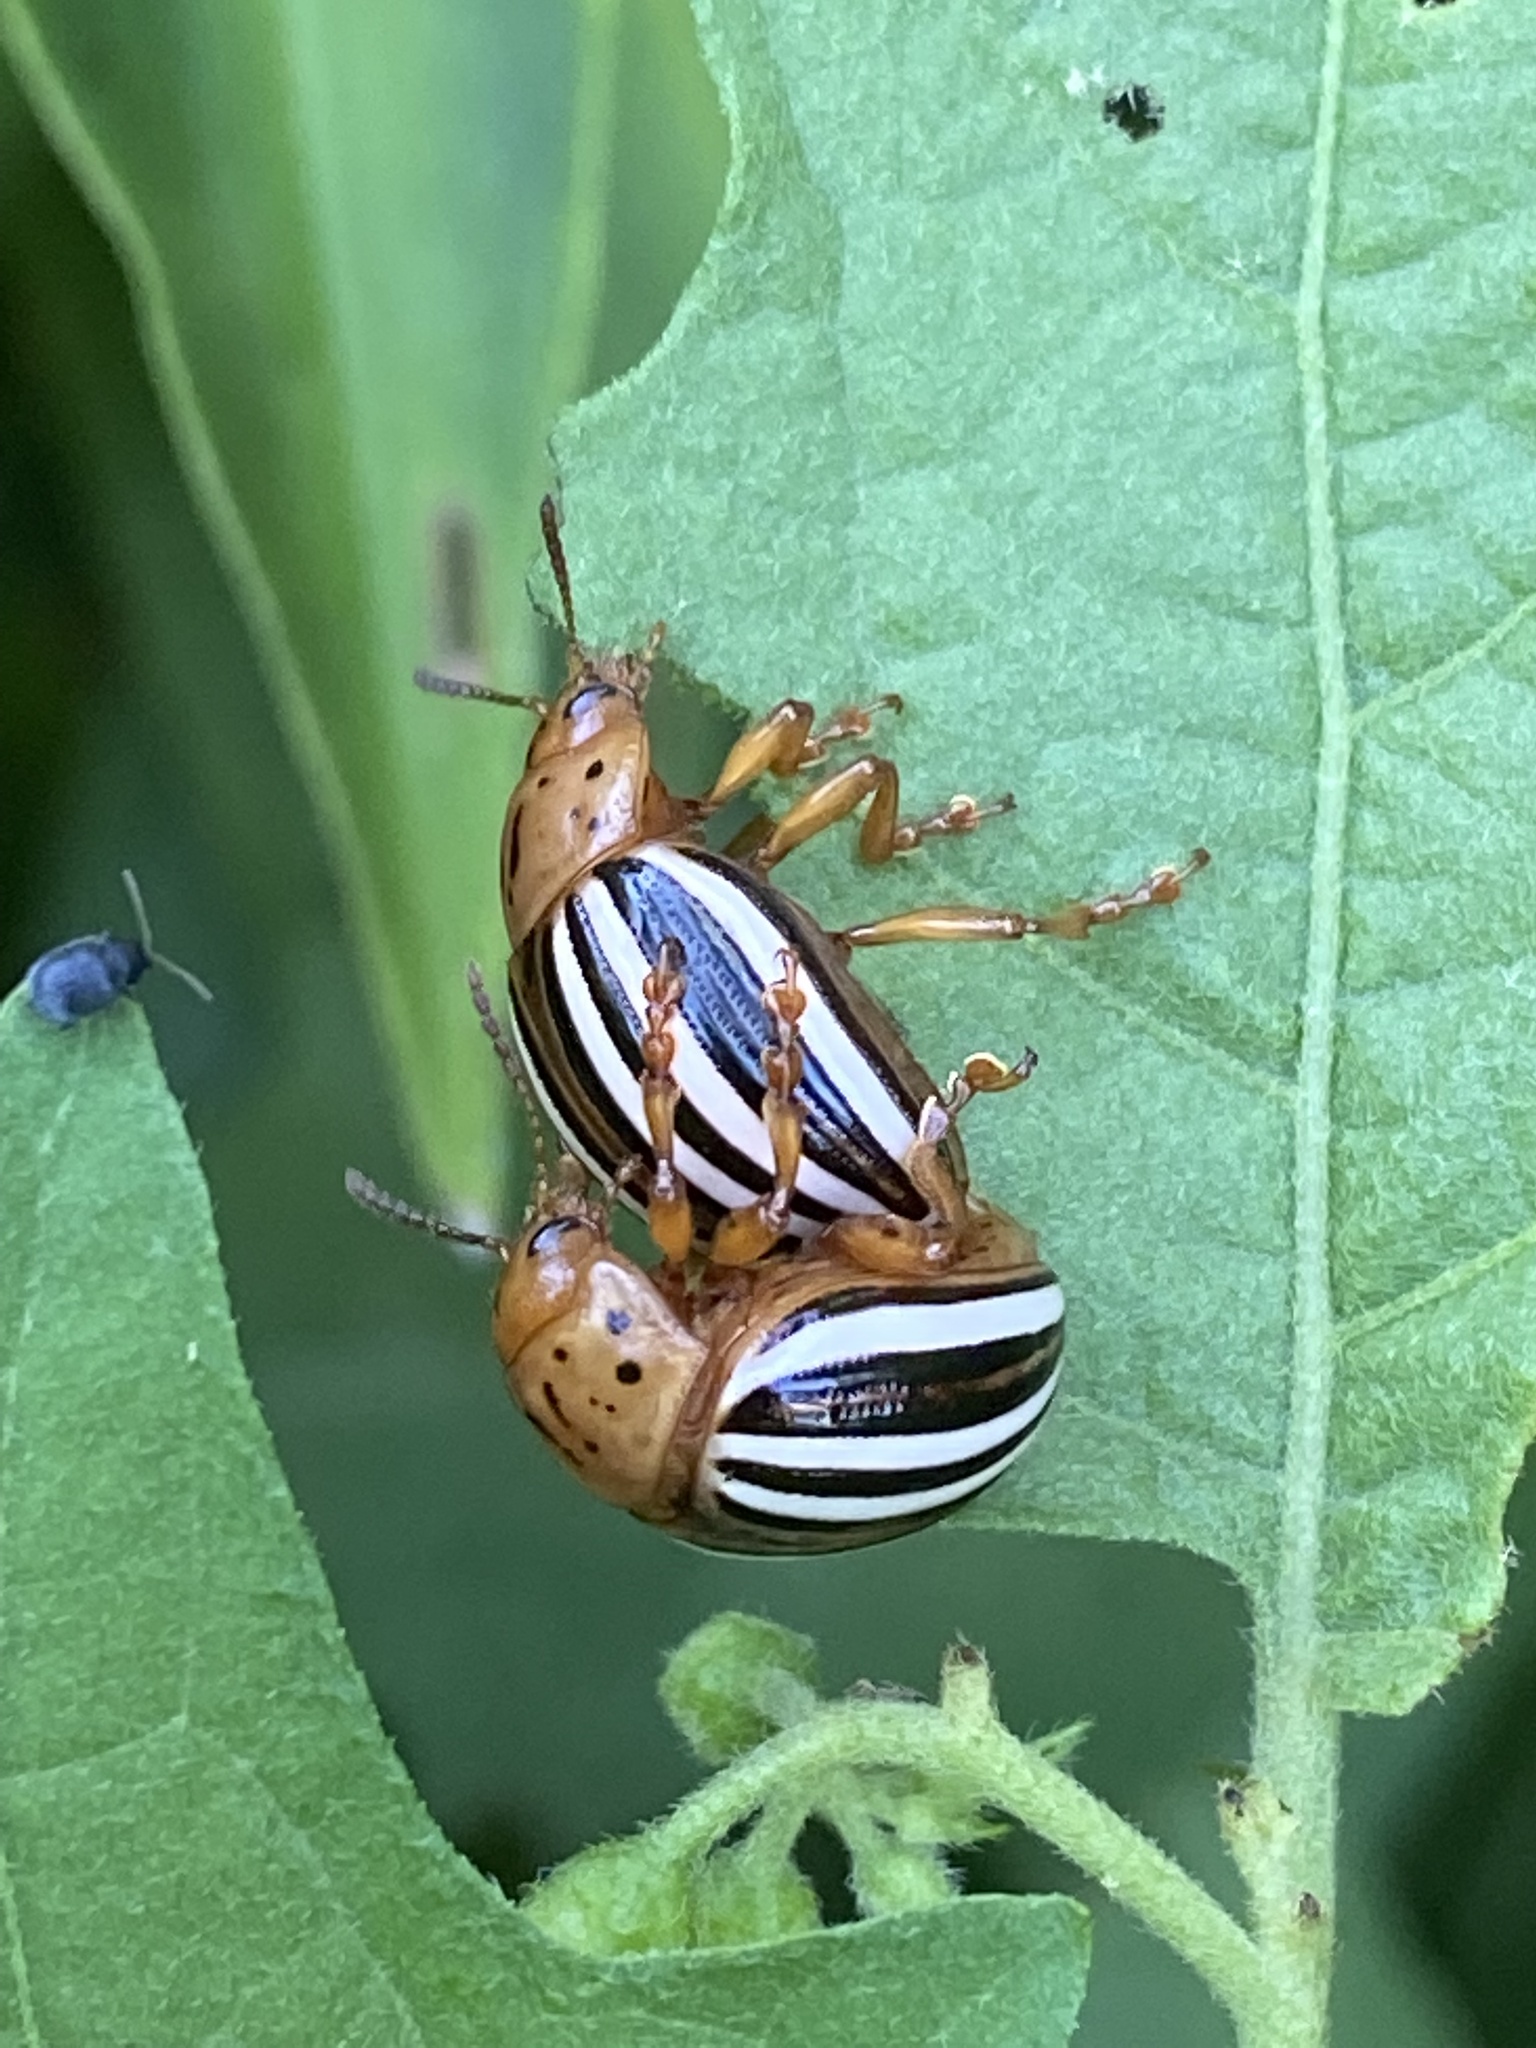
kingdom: Animalia
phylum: Arthropoda
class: Insecta
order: Coleoptera
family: Chrysomelidae
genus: Leptinotarsa
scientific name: Leptinotarsa juncta
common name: False potato beetle
